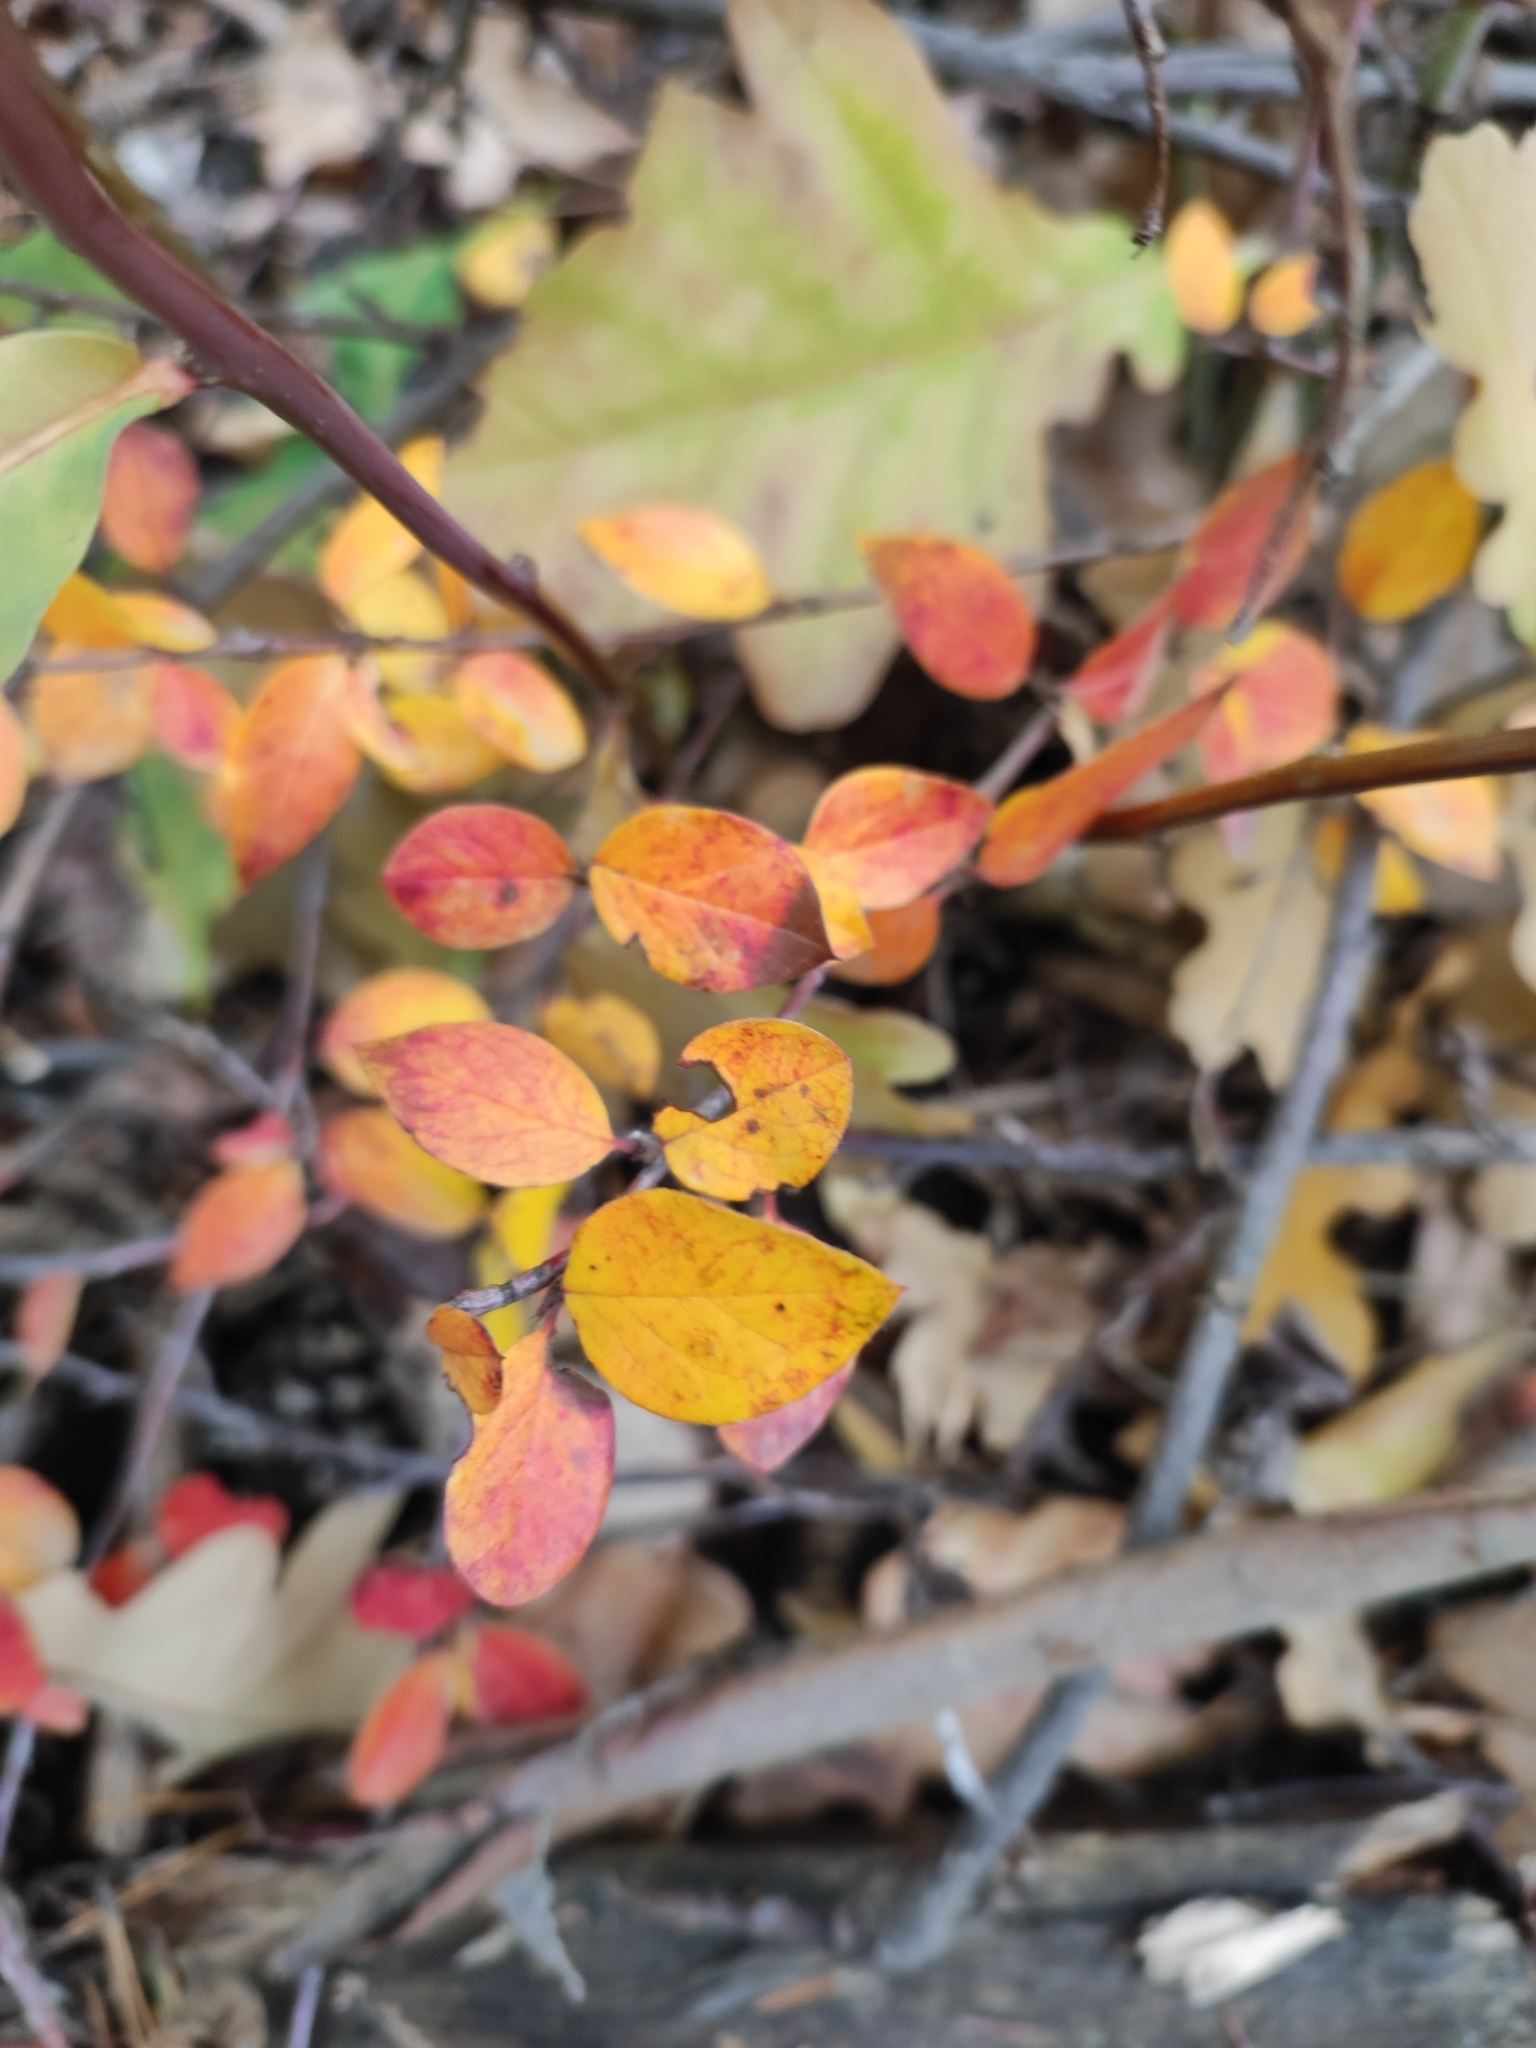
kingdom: Plantae
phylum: Tracheophyta
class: Magnoliopsida
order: Rosales
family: Rosaceae
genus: Cotoneaster
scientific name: Cotoneaster acutifolius
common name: Peking cotoneaster
